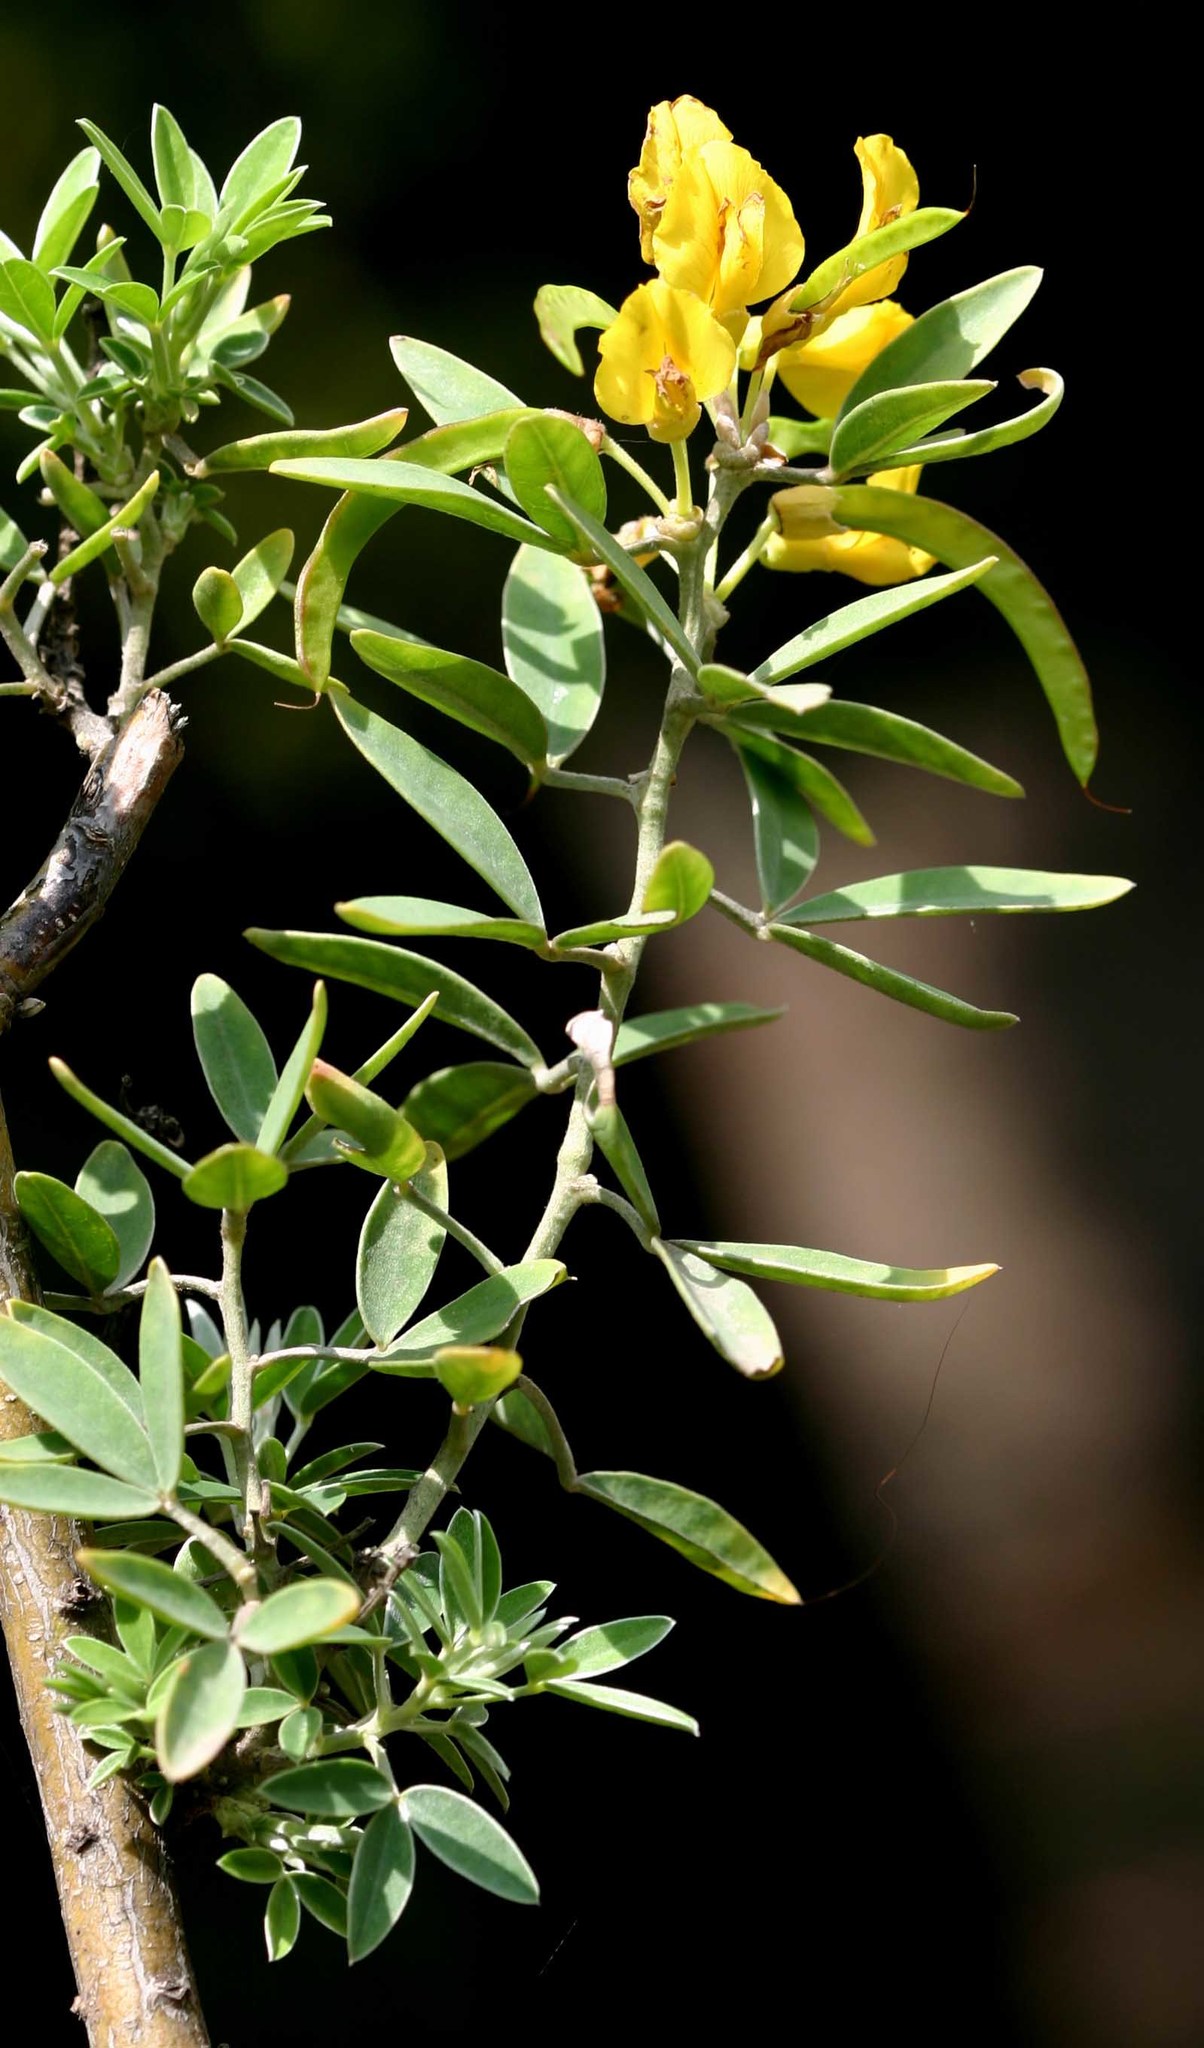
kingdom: Plantae
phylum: Tracheophyta
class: Magnoliopsida
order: Fabales
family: Fabaceae
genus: Cytisus
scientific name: Cytisus aeolicus
